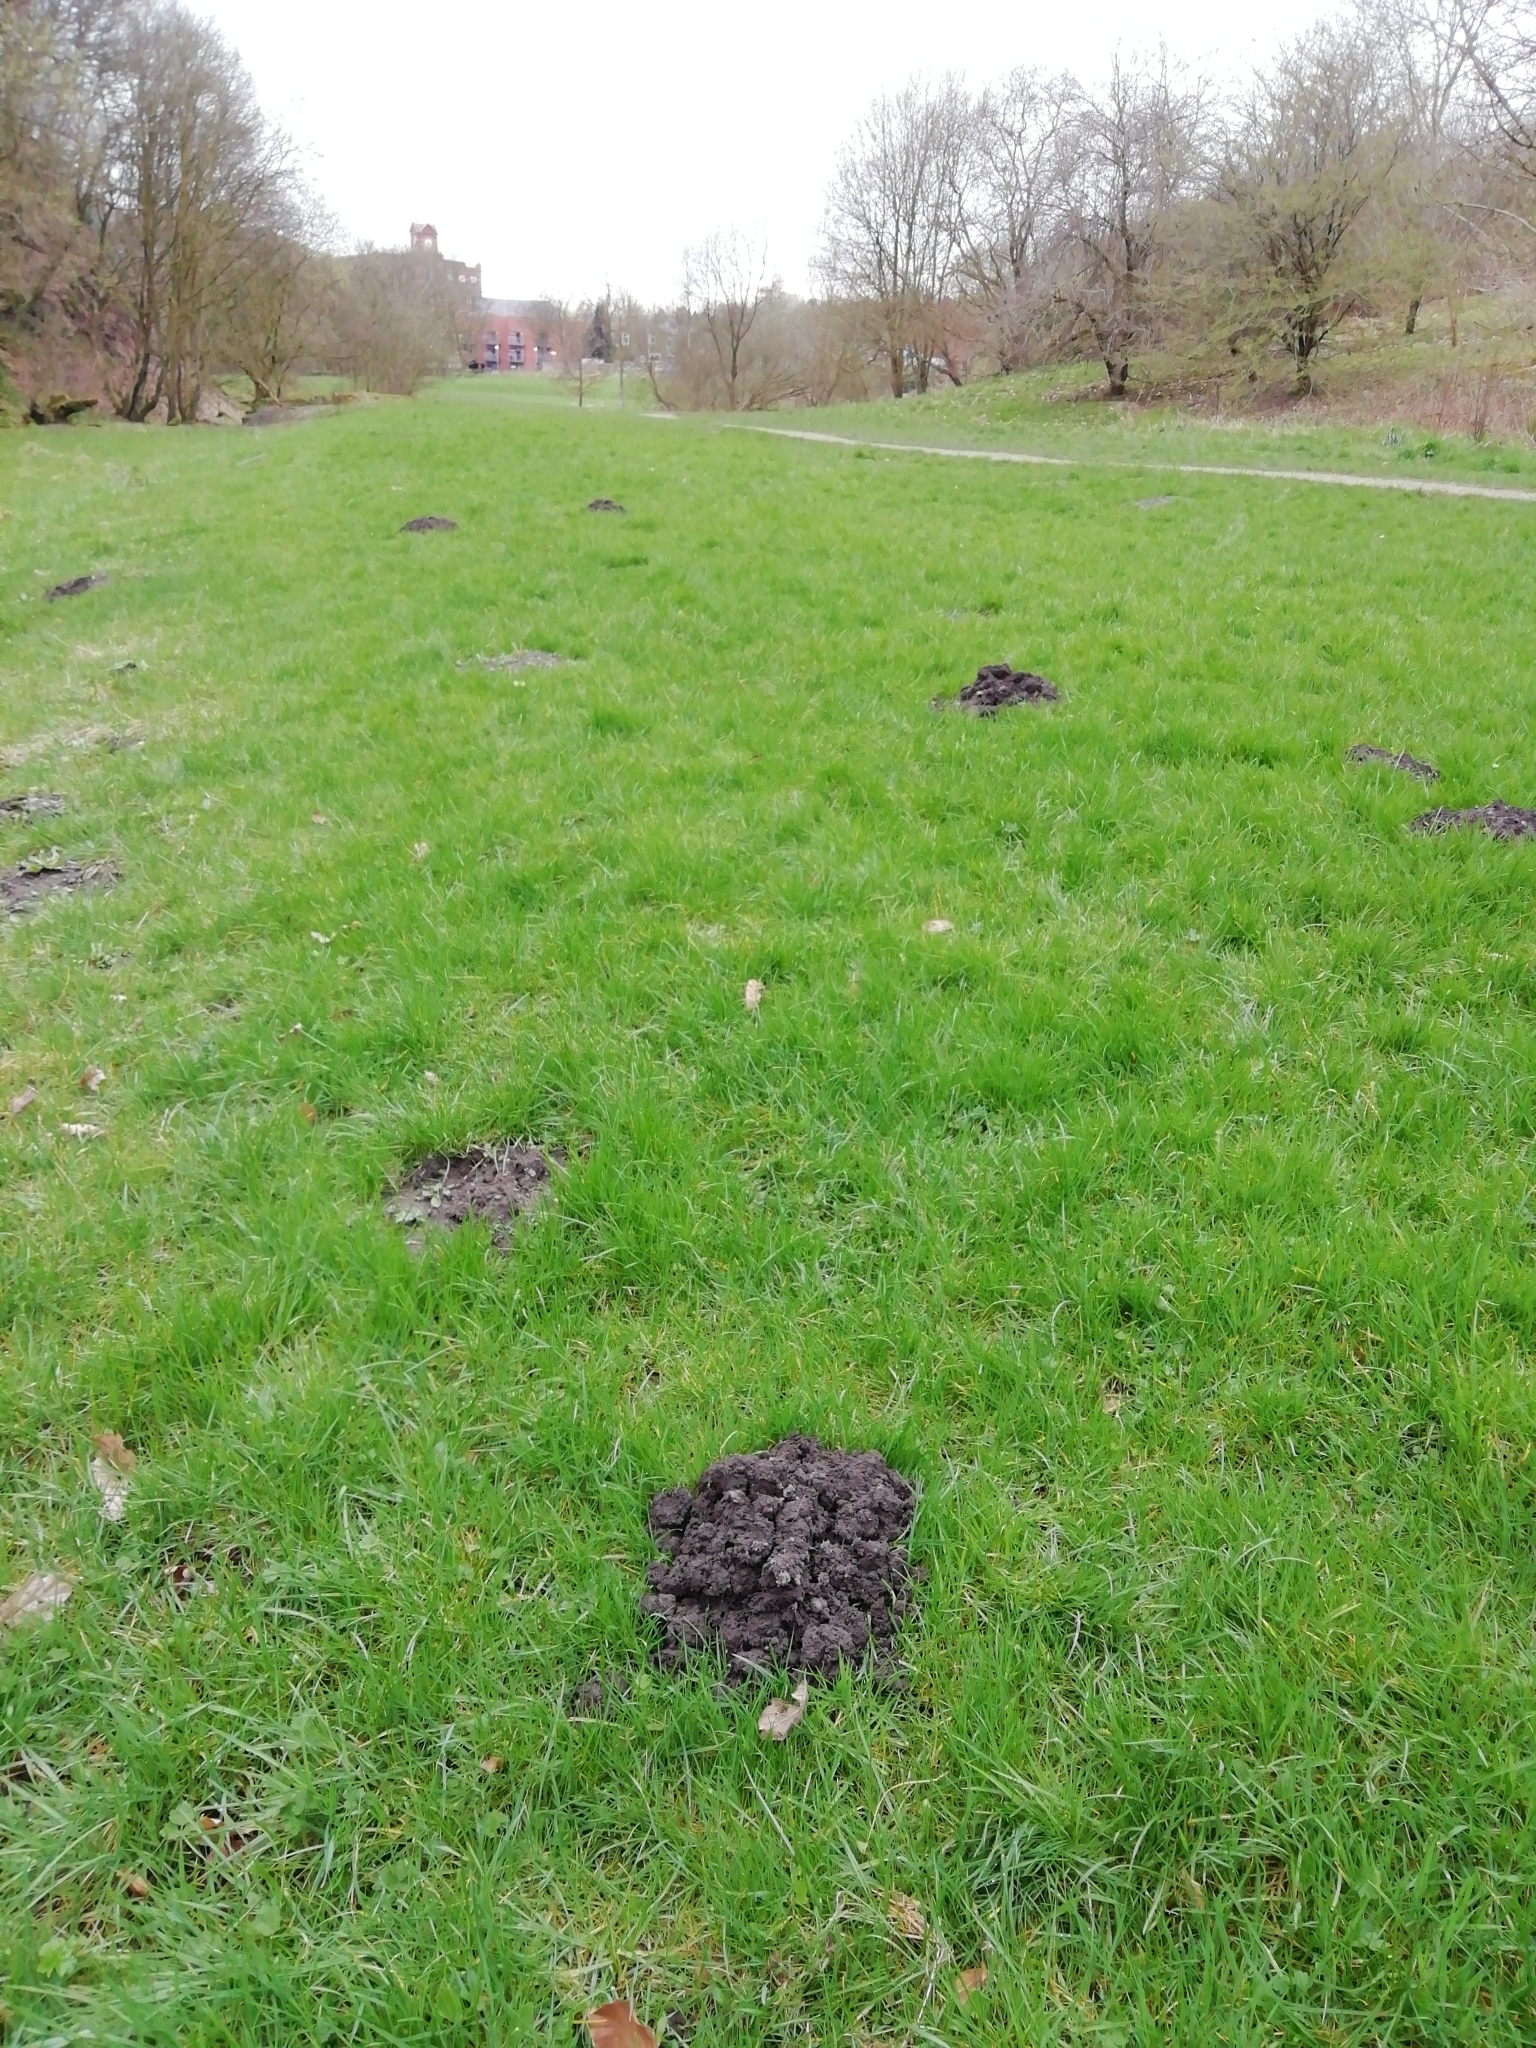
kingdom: Animalia
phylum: Chordata
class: Mammalia
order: Soricomorpha
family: Talpidae
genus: Talpa
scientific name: Talpa europaea
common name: European mole
